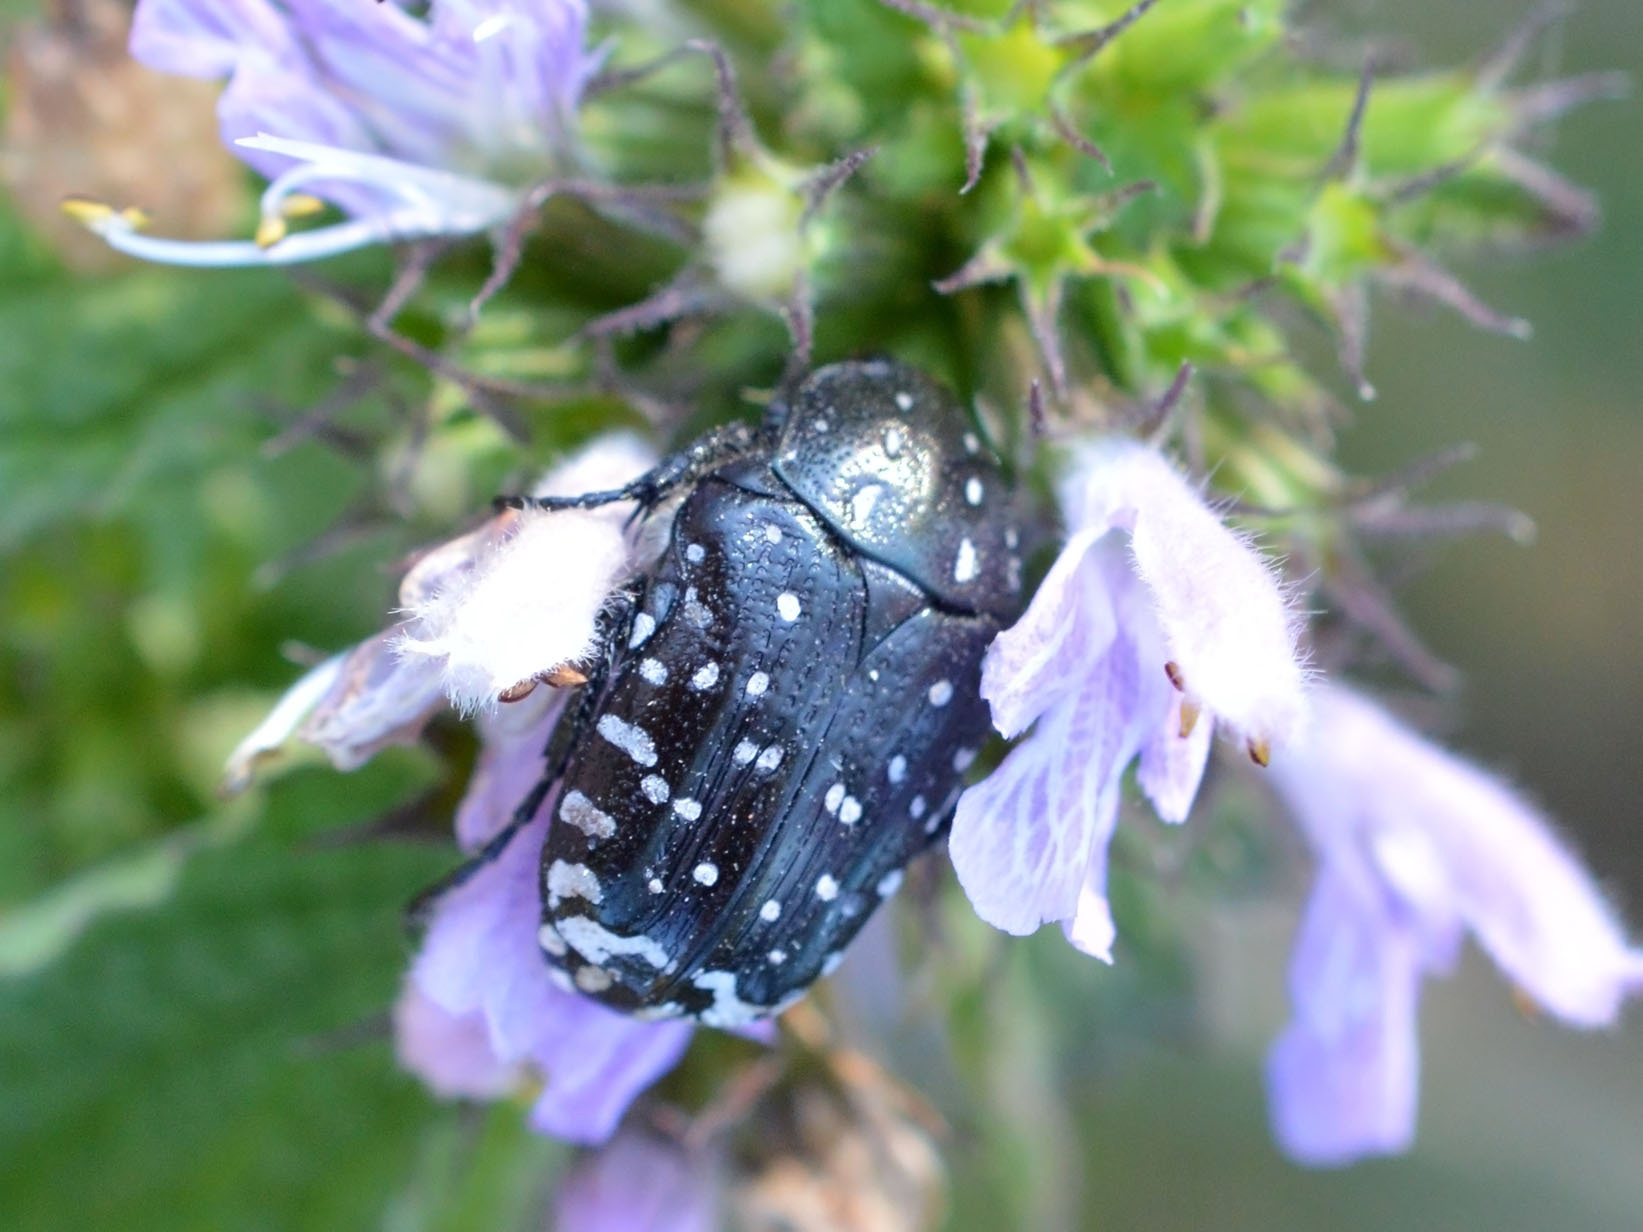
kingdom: Animalia
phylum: Arthropoda
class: Insecta
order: Coleoptera
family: Scarabaeidae
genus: Oxythyrea
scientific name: Oxythyrea funesta
